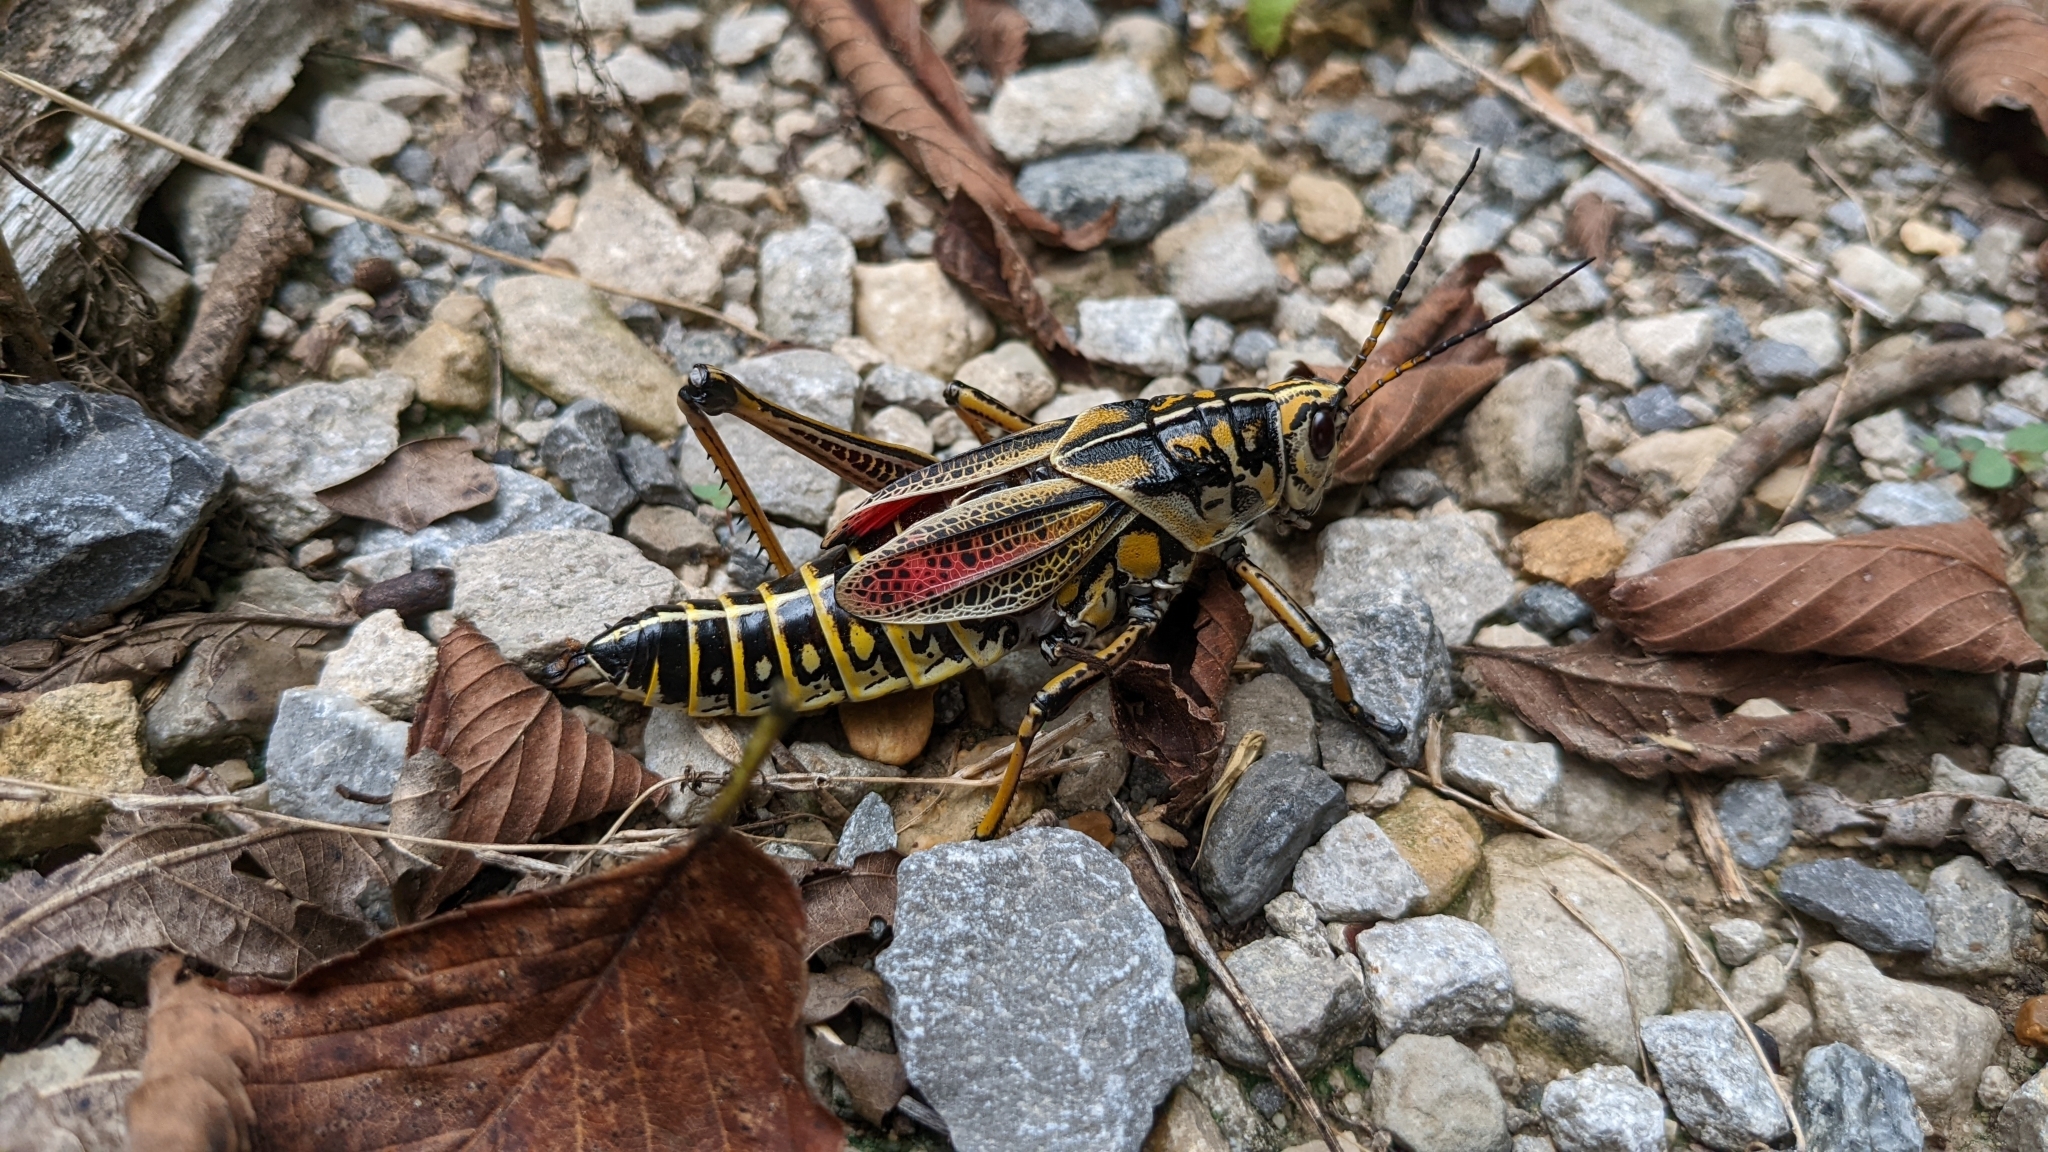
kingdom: Animalia
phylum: Arthropoda
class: Insecta
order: Orthoptera
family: Romaleidae
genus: Romalea
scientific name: Romalea microptera
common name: Eastern lubber grasshopper
